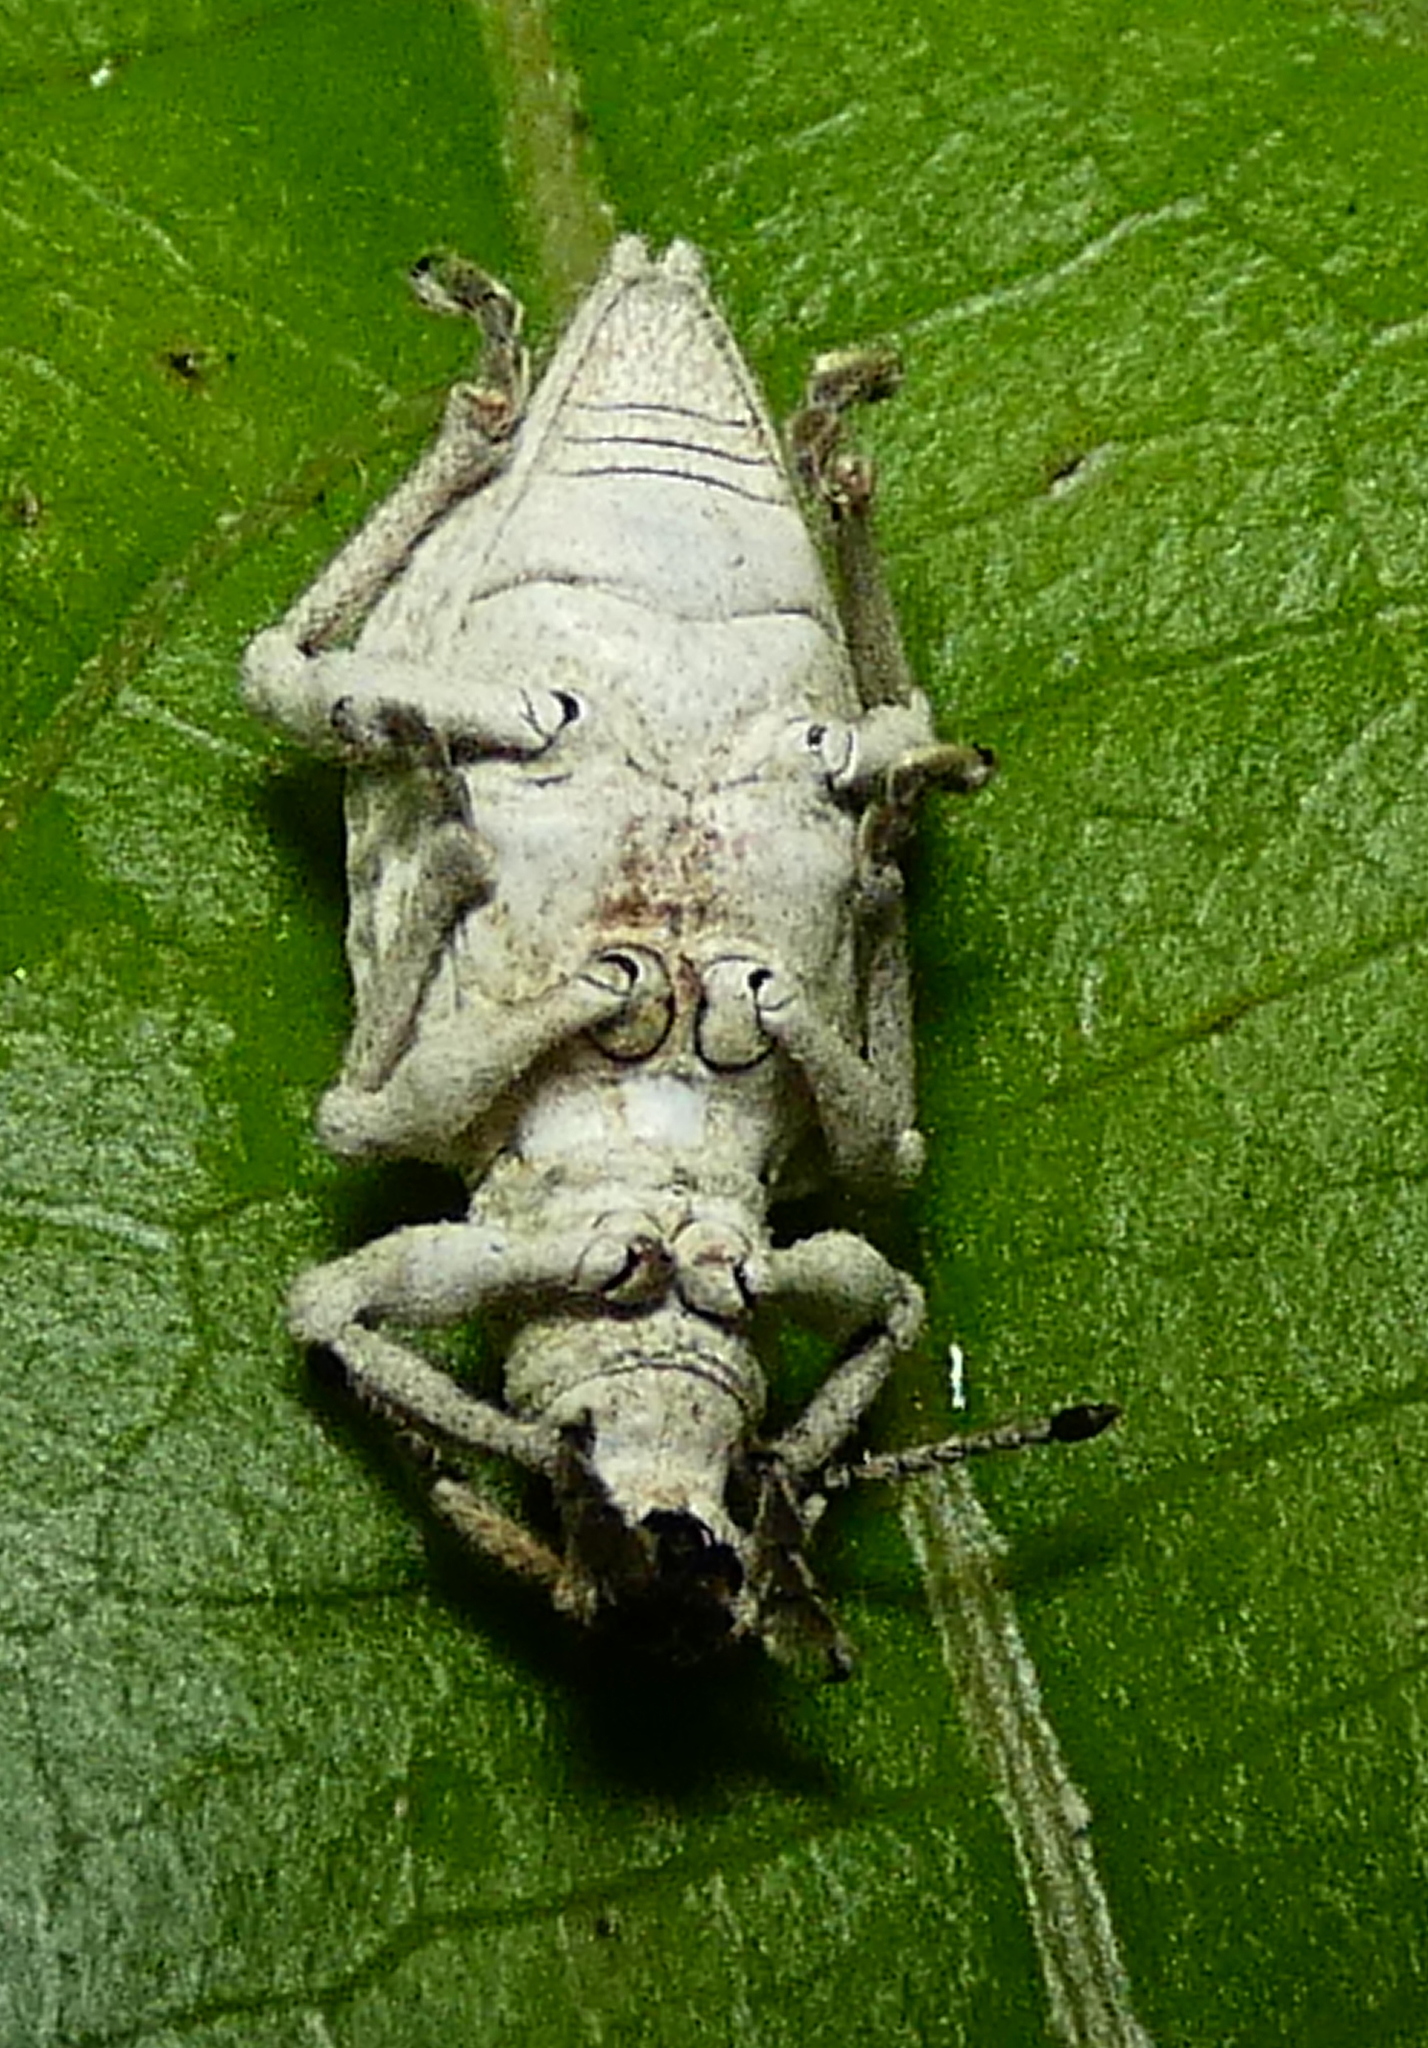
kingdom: Animalia
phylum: Arthropoda
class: Insecta
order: Coleoptera
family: Curculionidae
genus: Compsus
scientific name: Compsus niveus
